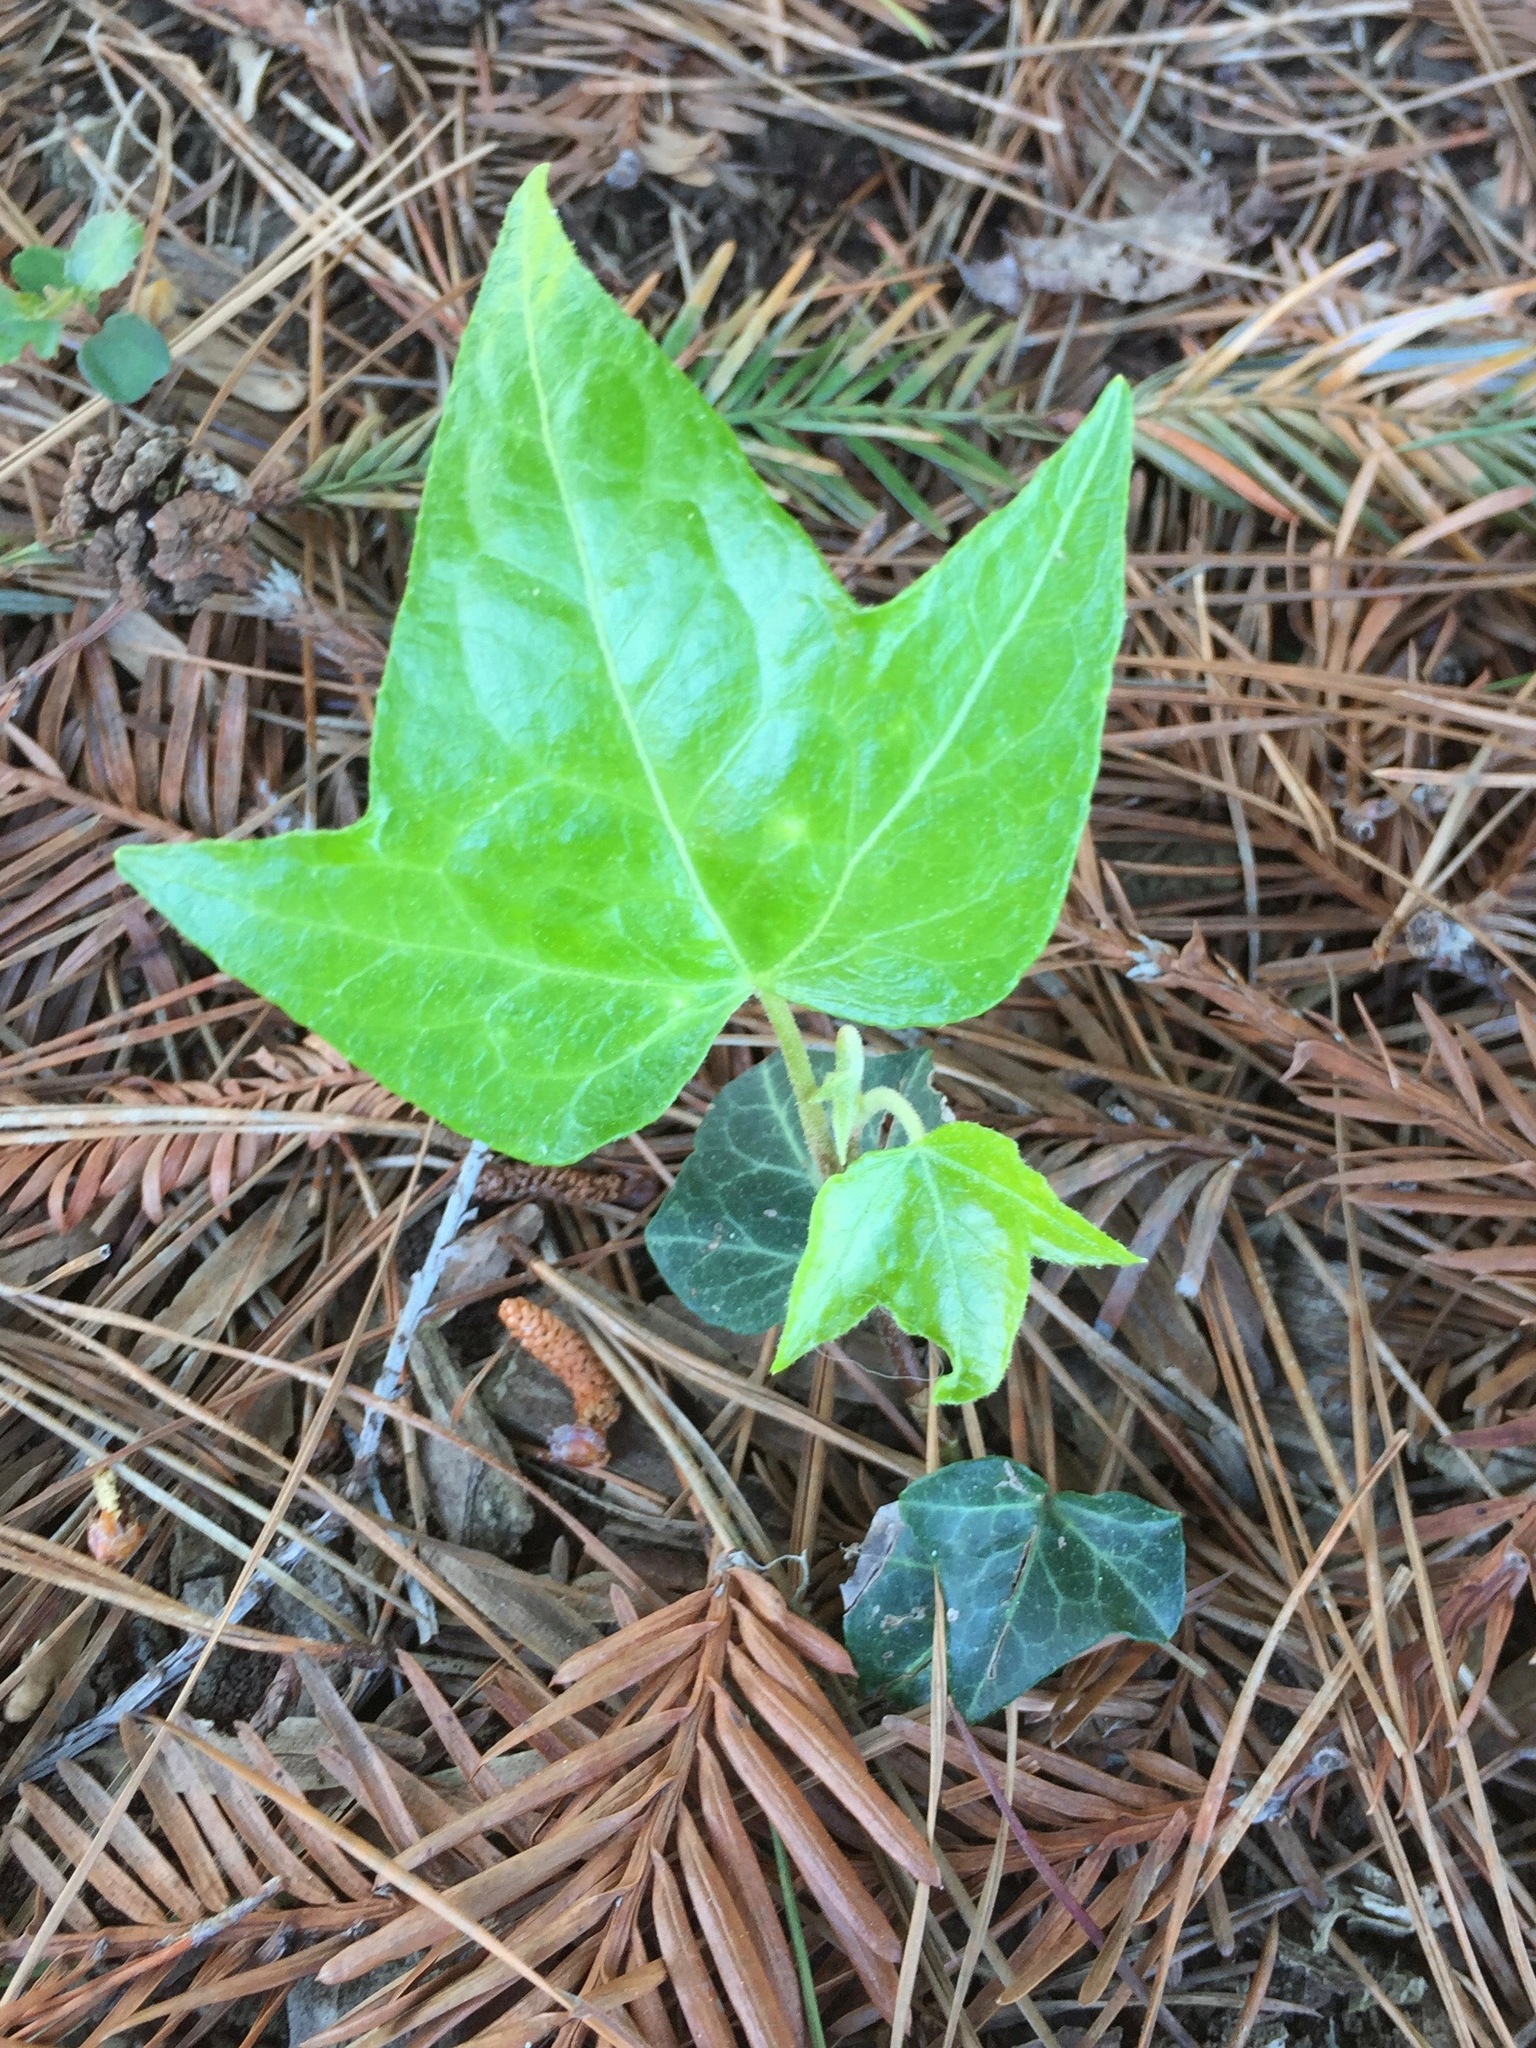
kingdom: Plantae
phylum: Tracheophyta
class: Magnoliopsida
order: Apiales
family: Araliaceae
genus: Hedera
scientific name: Hedera helix
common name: Ivy
